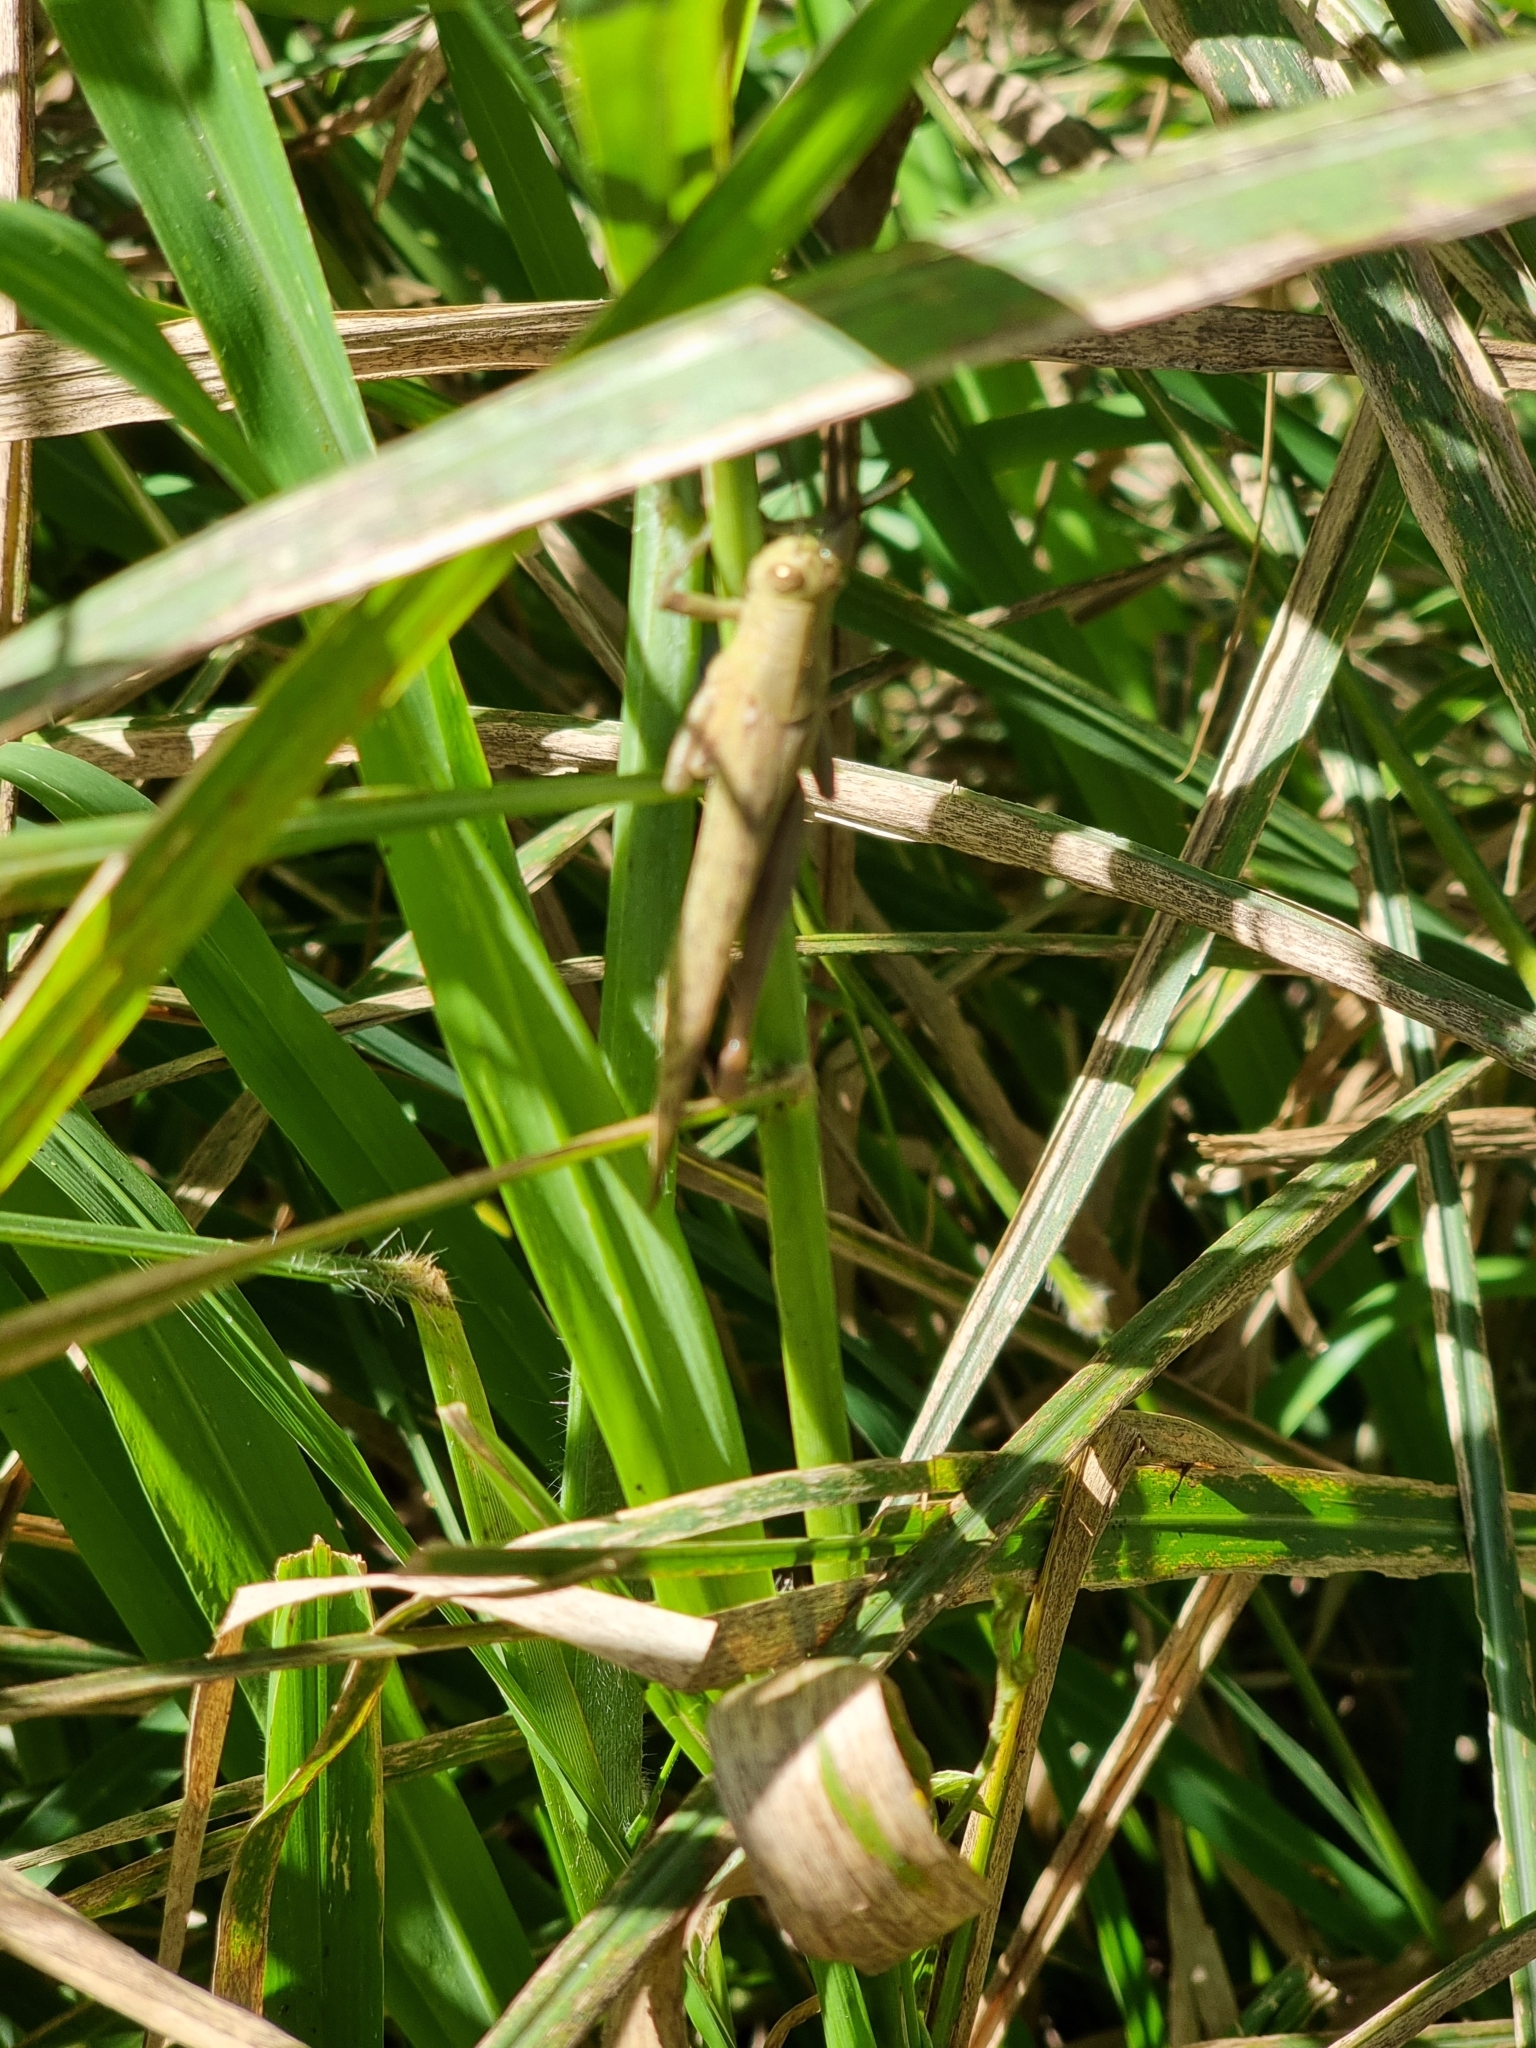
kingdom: Animalia
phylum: Arthropoda
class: Insecta
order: Orthoptera
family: Acrididae
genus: Valanga
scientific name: Valanga irregularis
